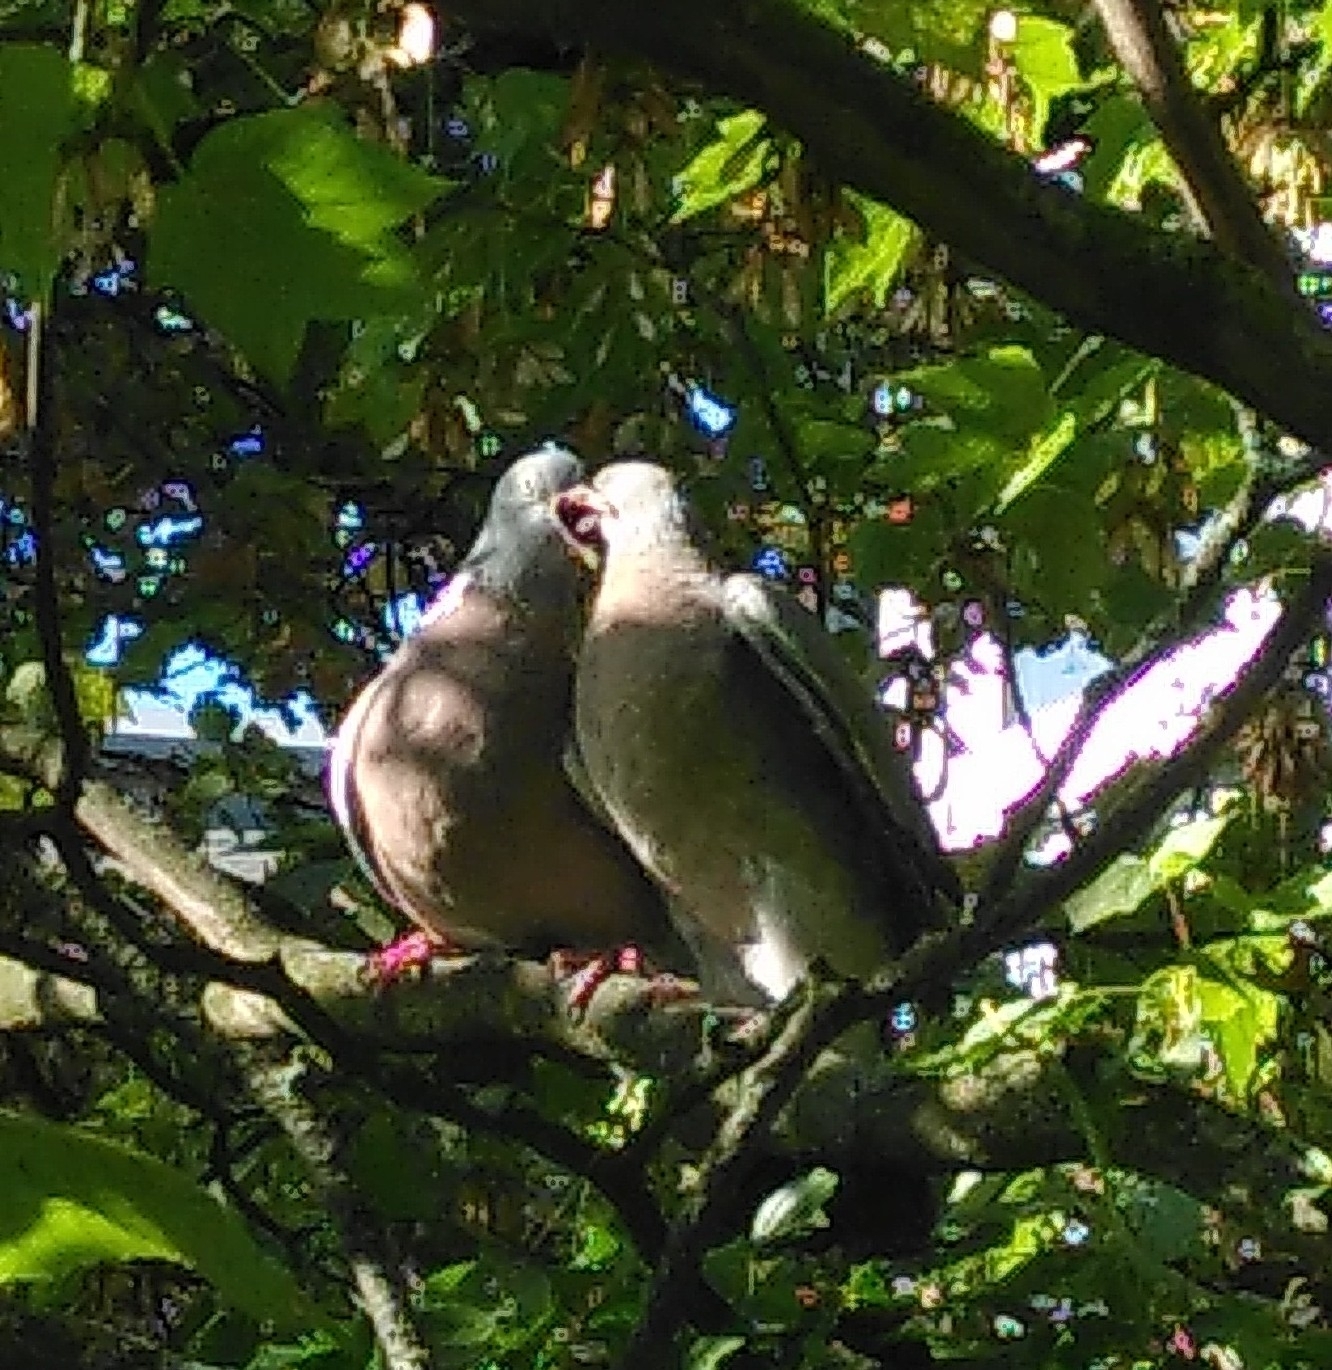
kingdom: Animalia
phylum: Chordata
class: Aves
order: Columbiformes
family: Columbidae
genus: Columba
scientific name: Columba palumbus
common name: Common wood pigeon
